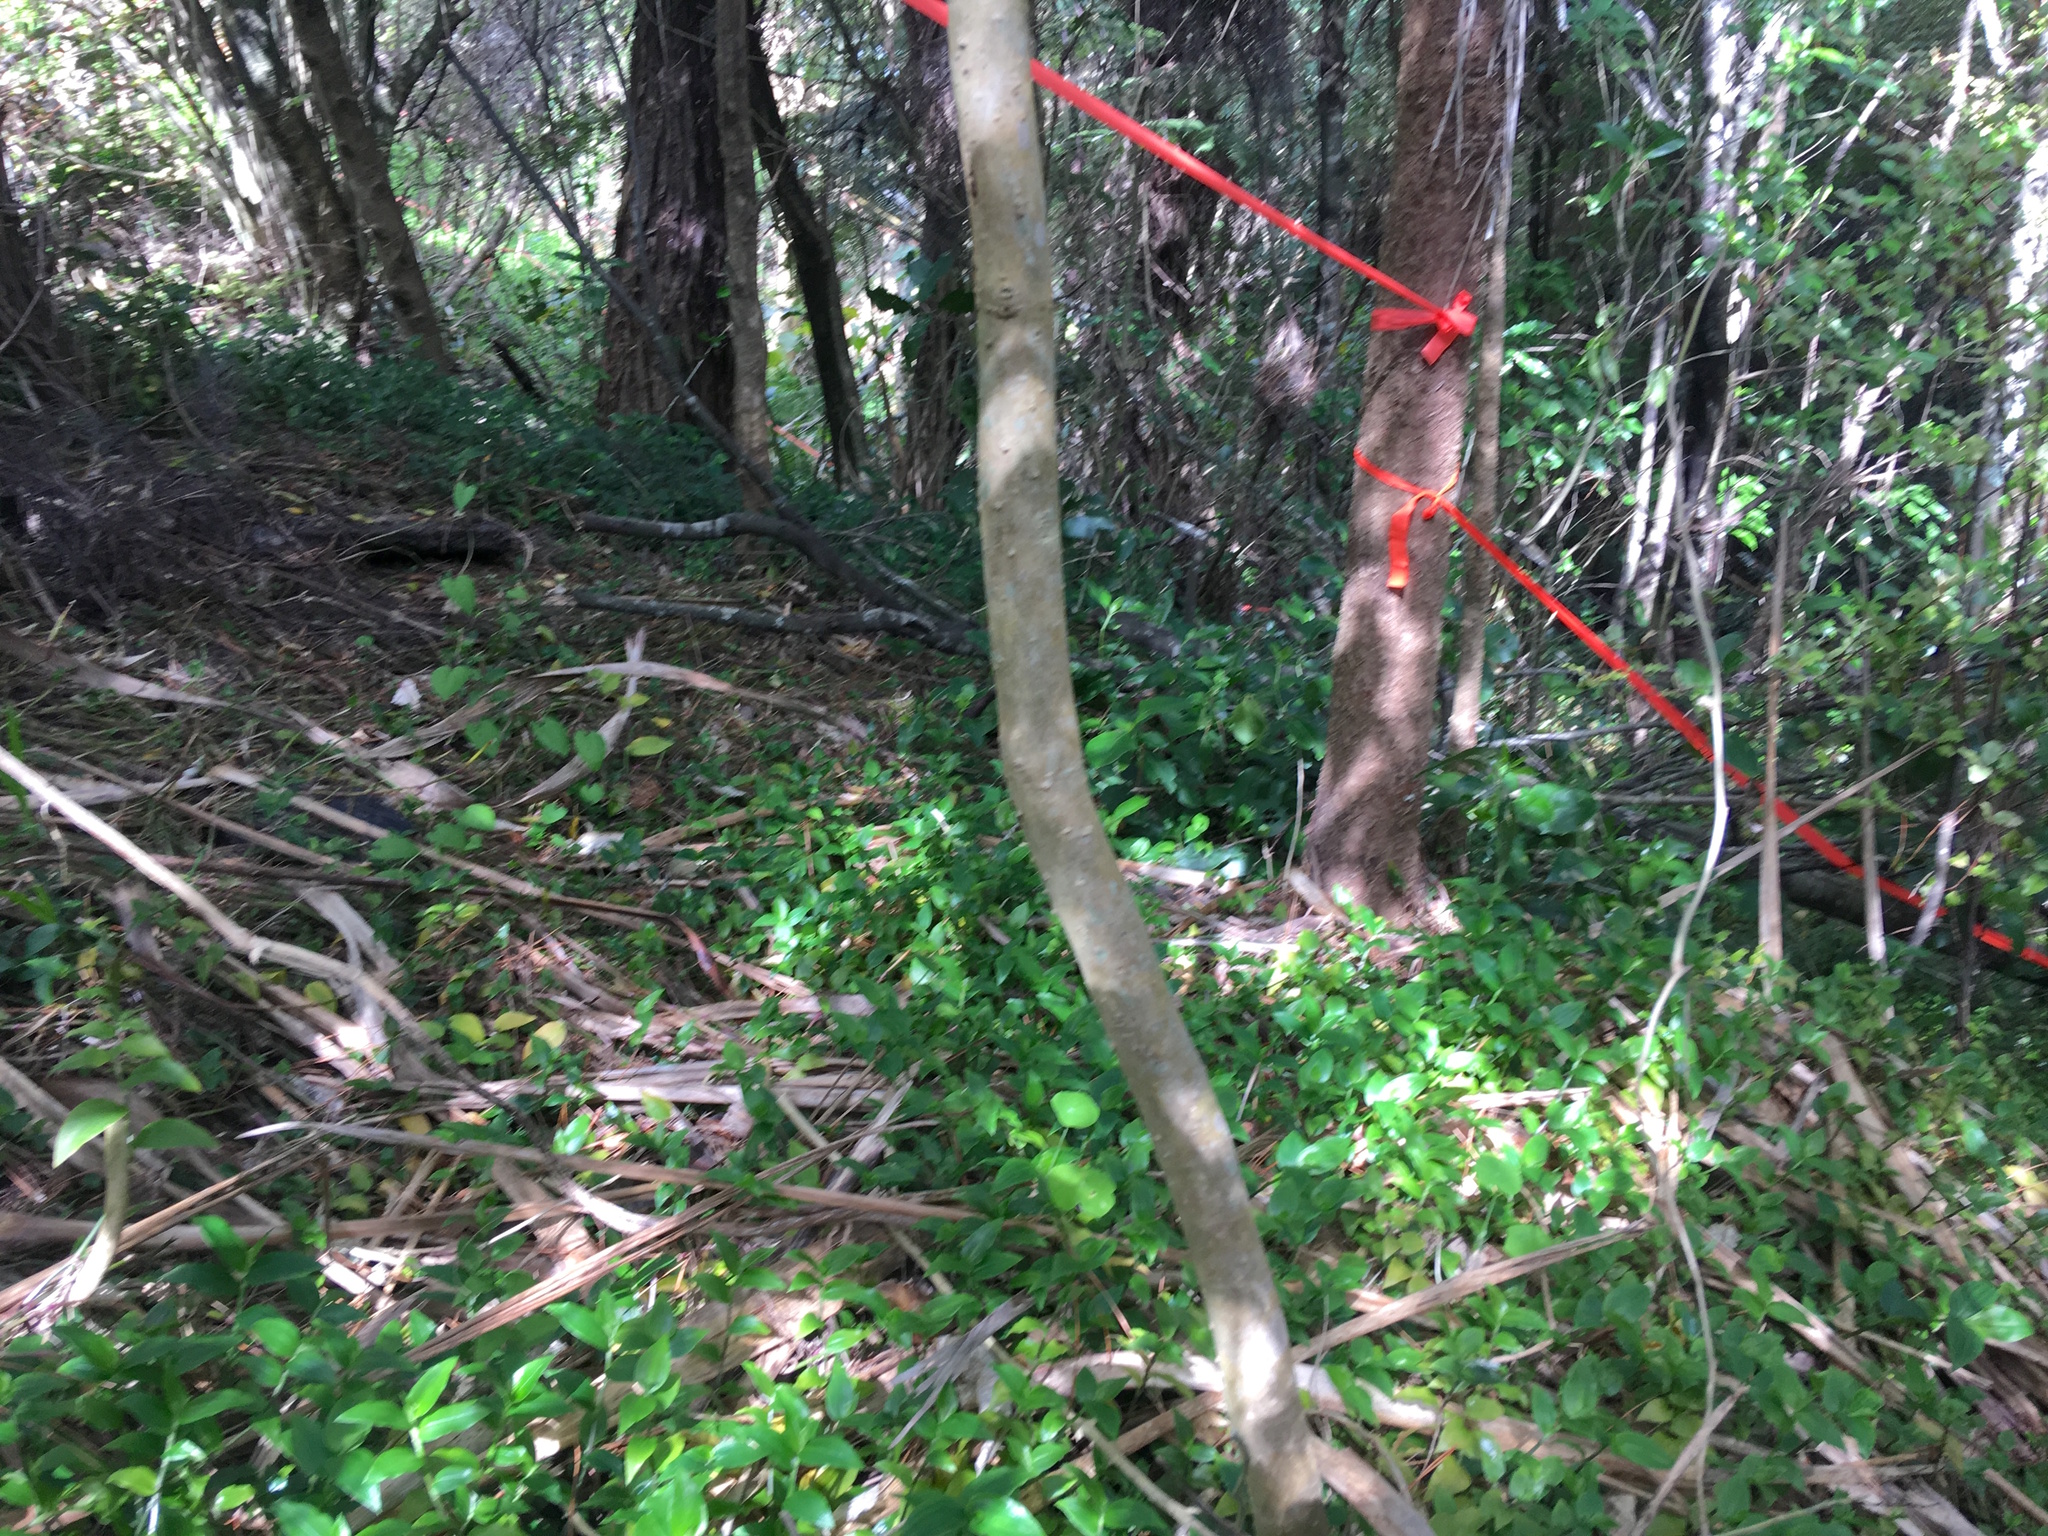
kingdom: Plantae
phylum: Tracheophyta
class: Liliopsida
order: Commelinales
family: Commelinaceae
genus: Tradescantia
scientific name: Tradescantia fluminensis
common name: Wandering-jew
